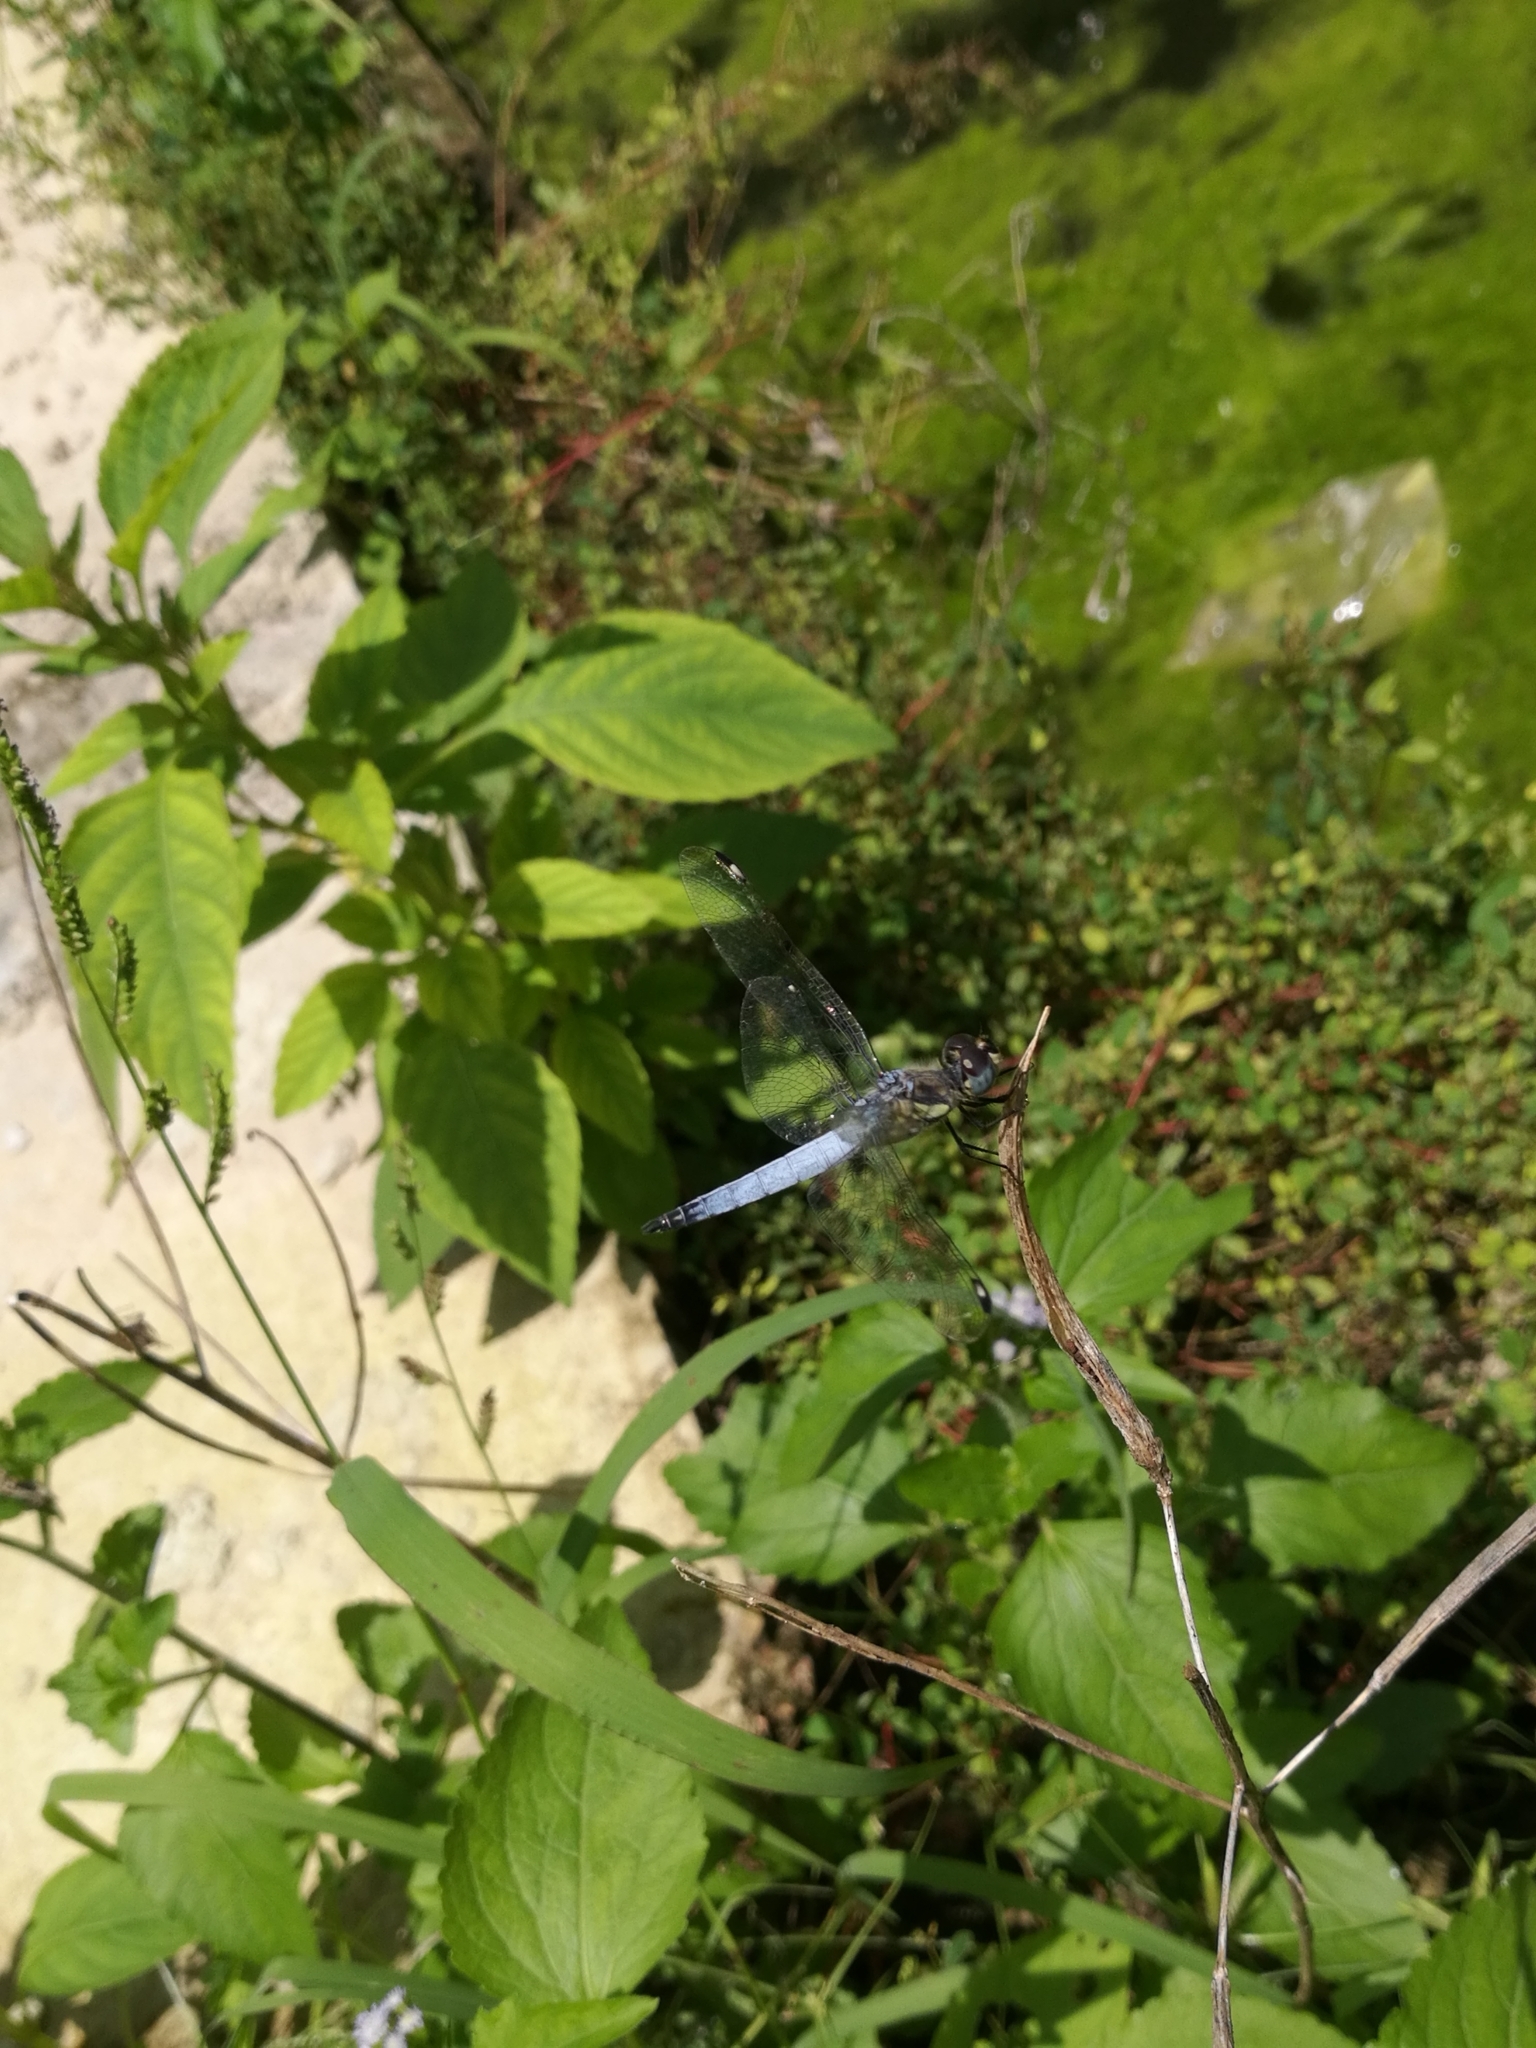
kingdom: Animalia
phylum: Arthropoda
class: Insecta
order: Odonata
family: Libellulidae
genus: Palpopleura
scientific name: Palpopleura deceptor
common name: Deceptive widow
